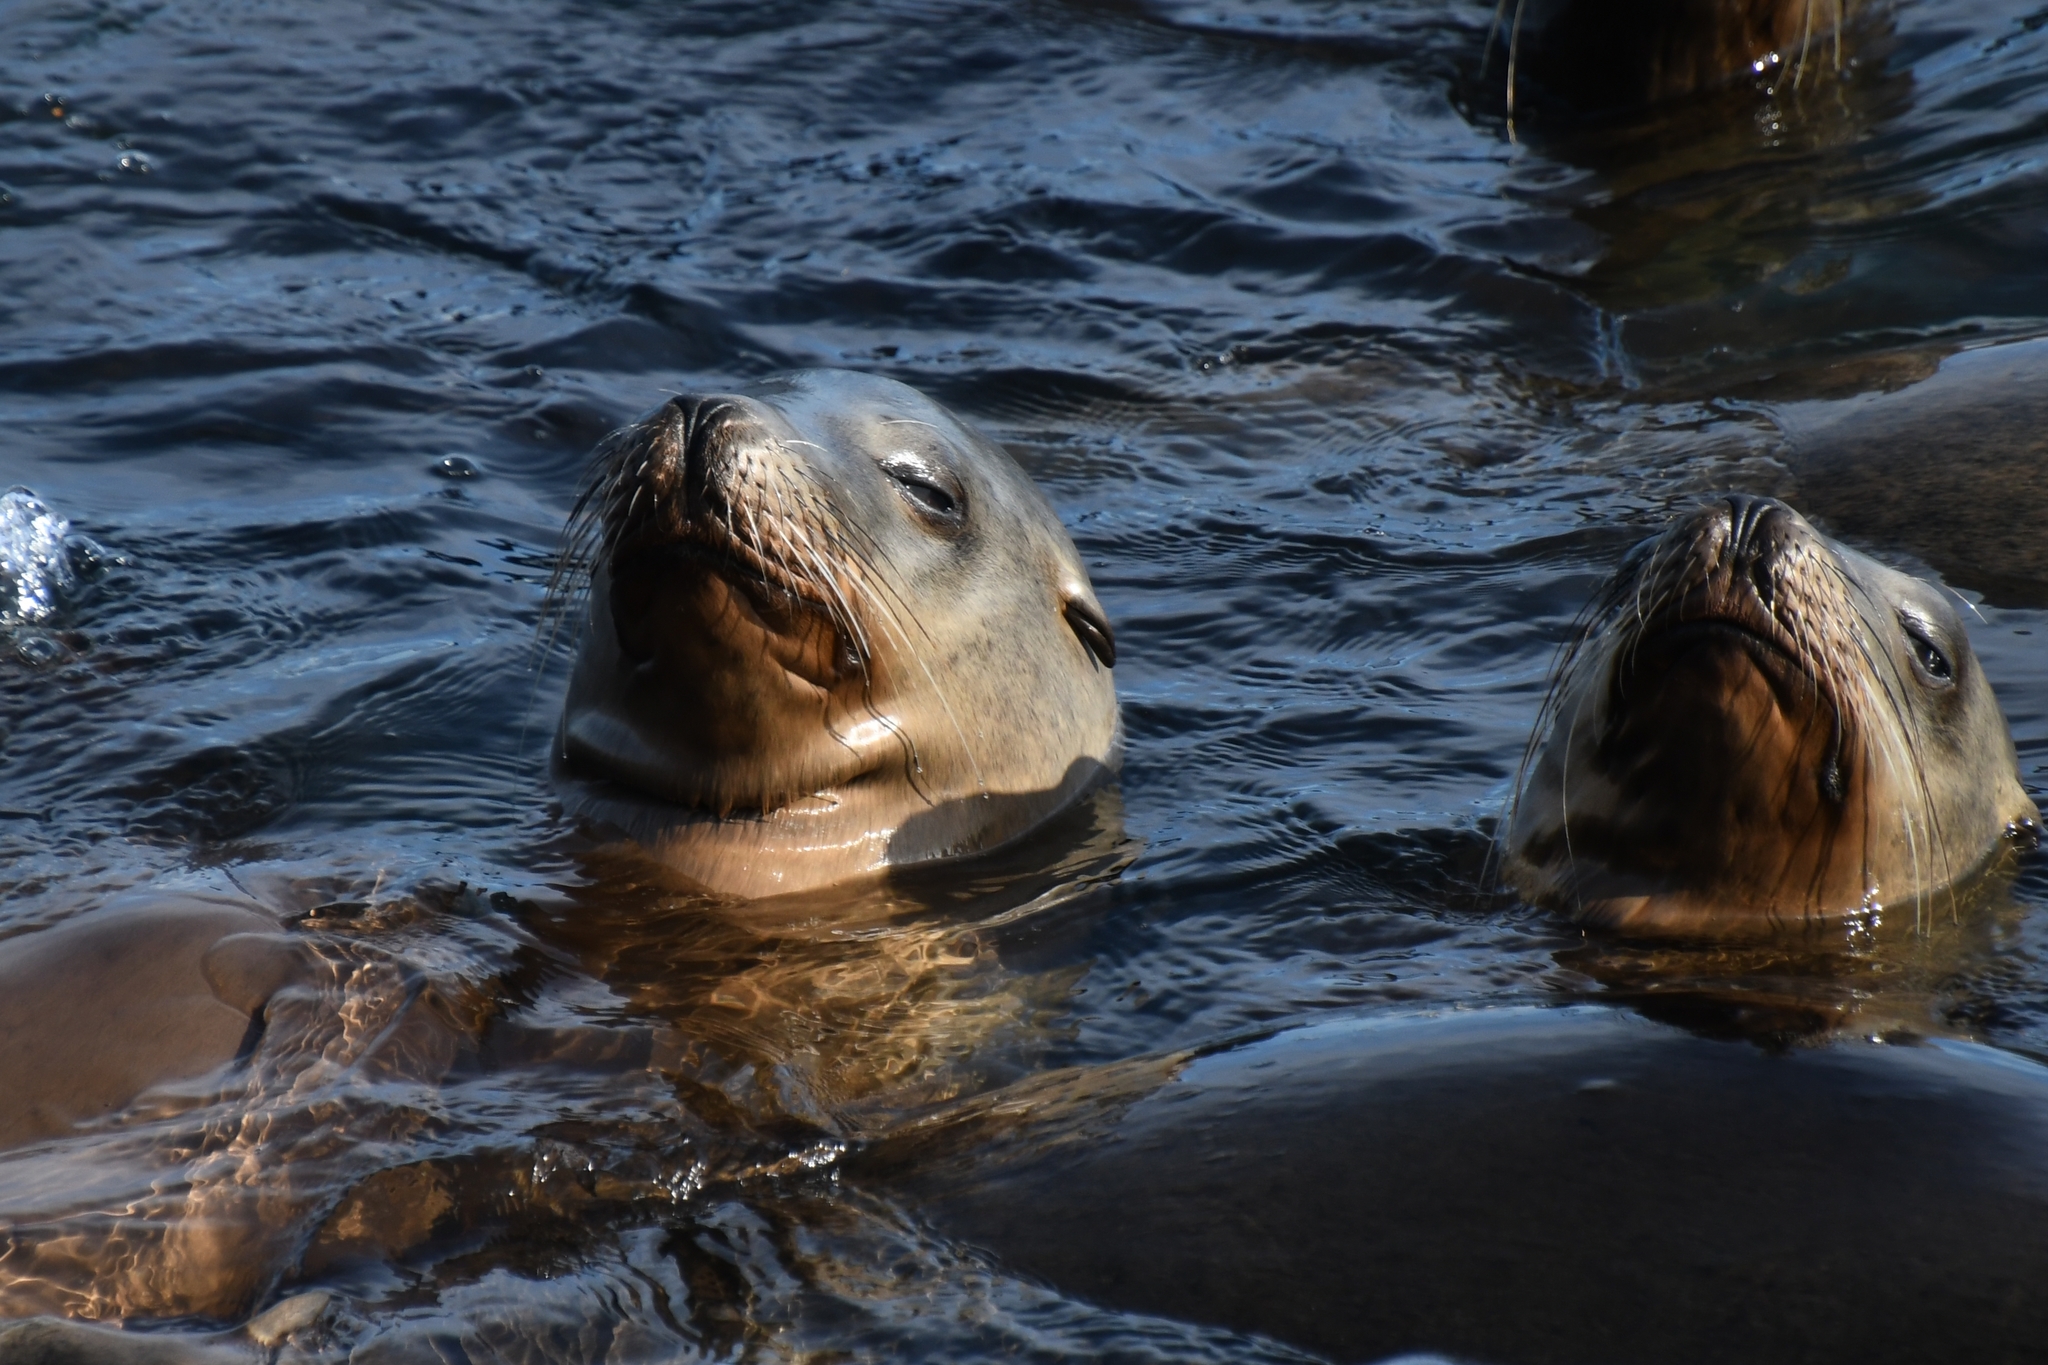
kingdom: Animalia
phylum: Chordata
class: Mammalia
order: Carnivora
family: Otariidae
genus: Zalophus
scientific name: Zalophus californianus
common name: California sea lion
